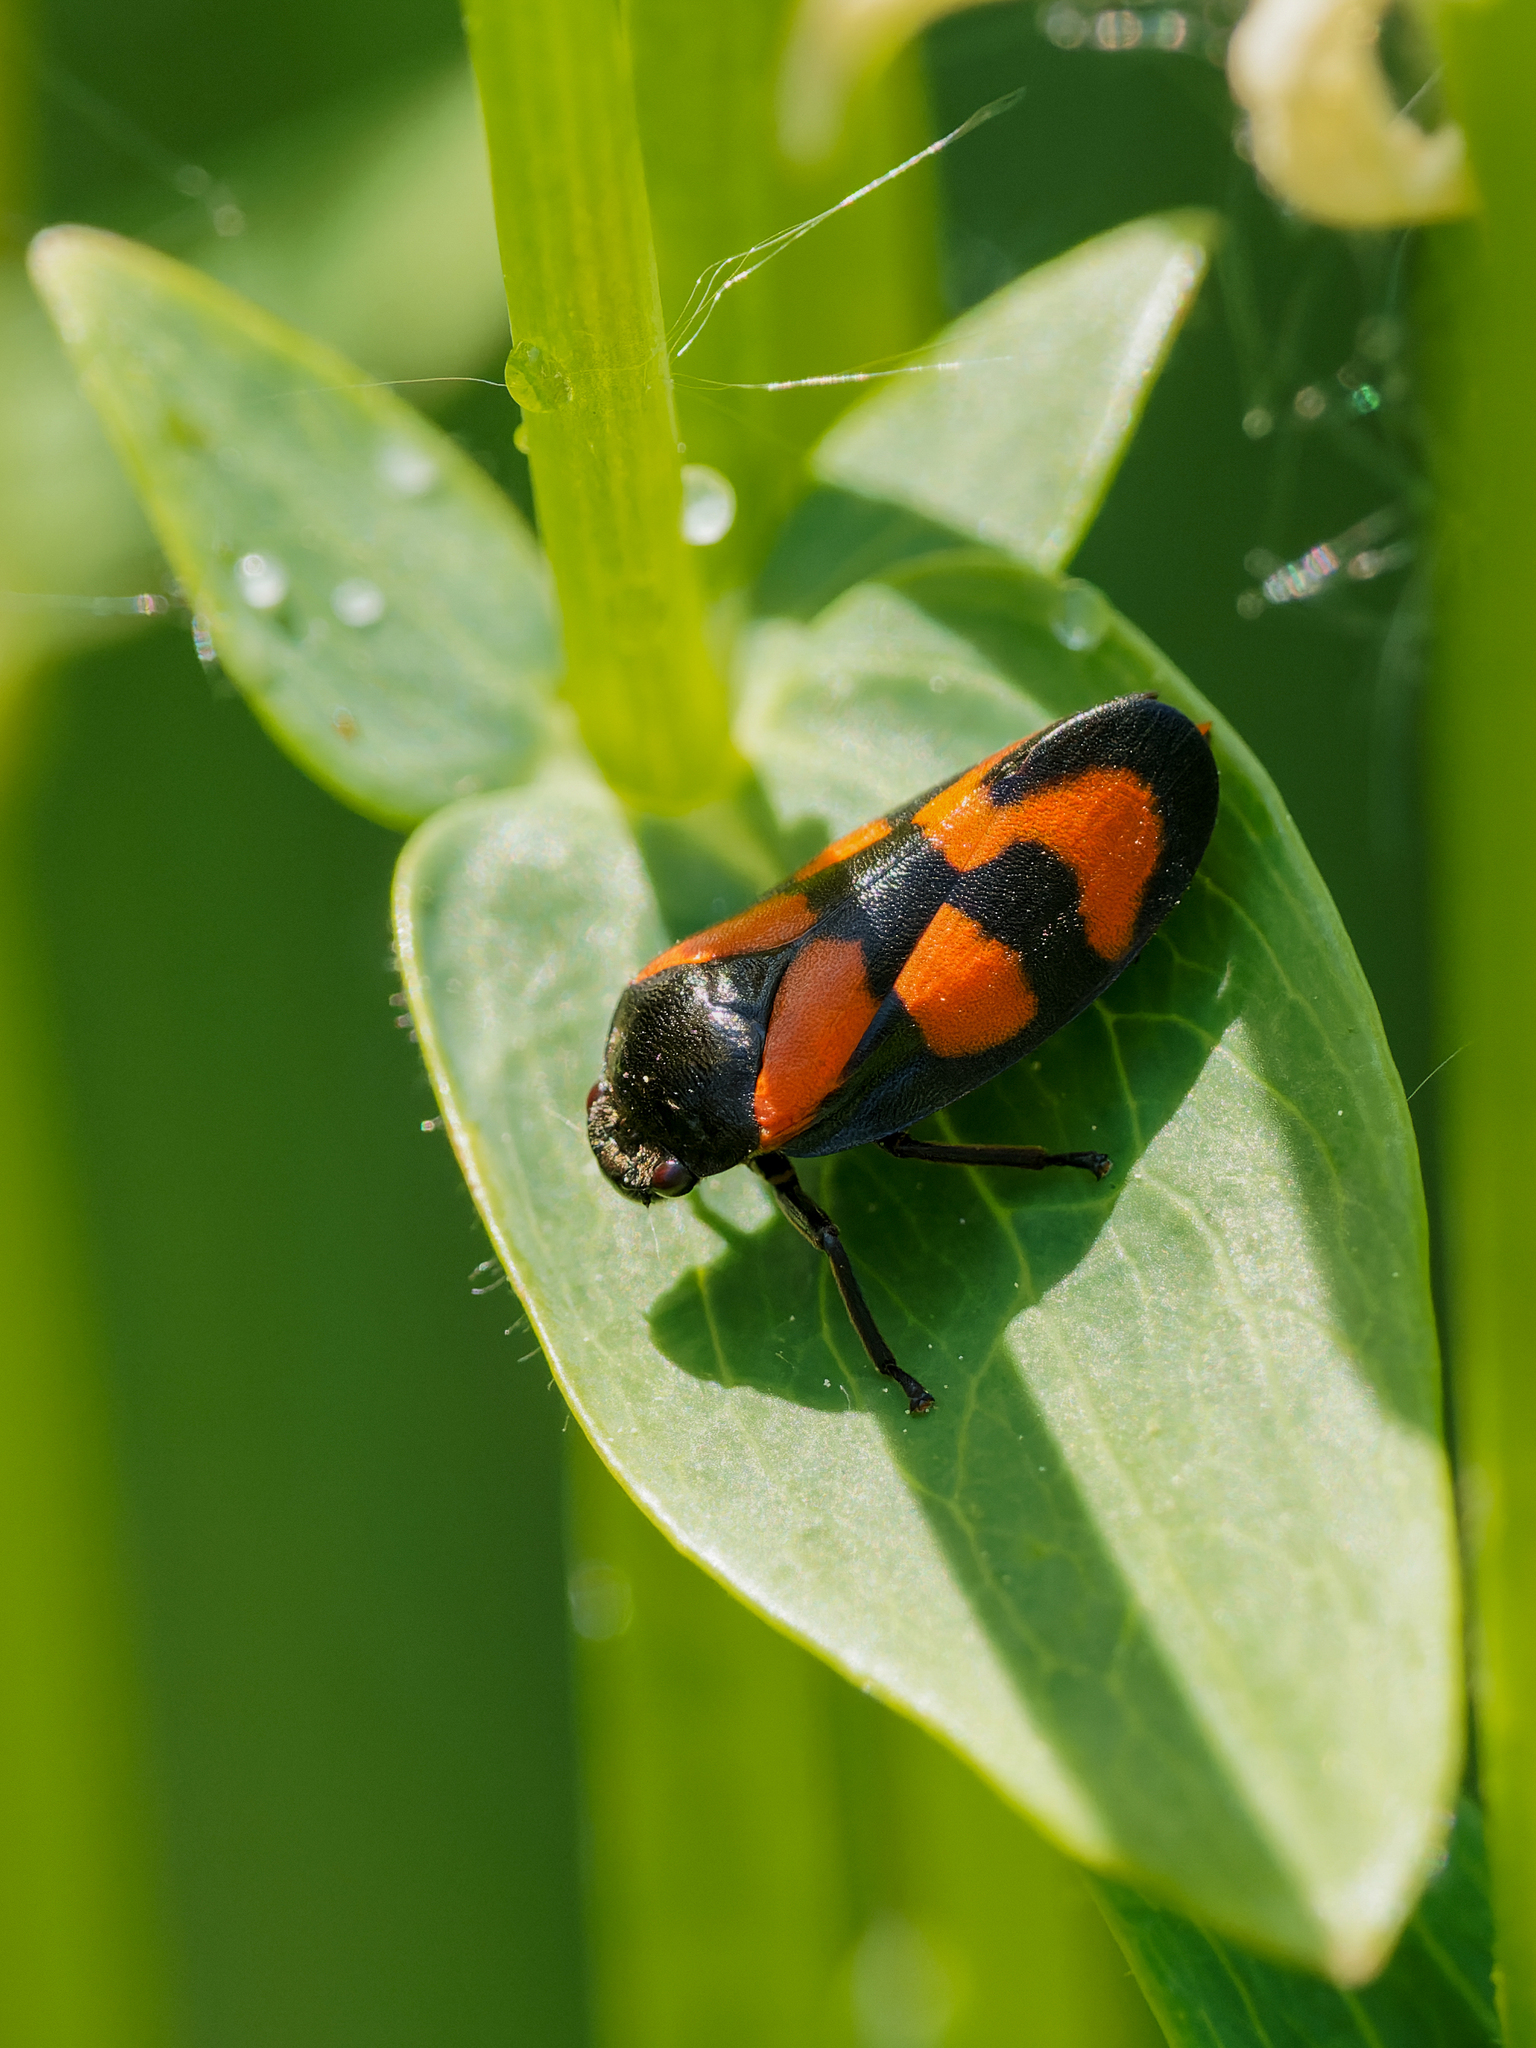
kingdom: Animalia
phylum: Arthropoda
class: Insecta
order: Hemiptera
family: Cercopidae
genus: Cercopis
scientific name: Cercopis vulnerata
